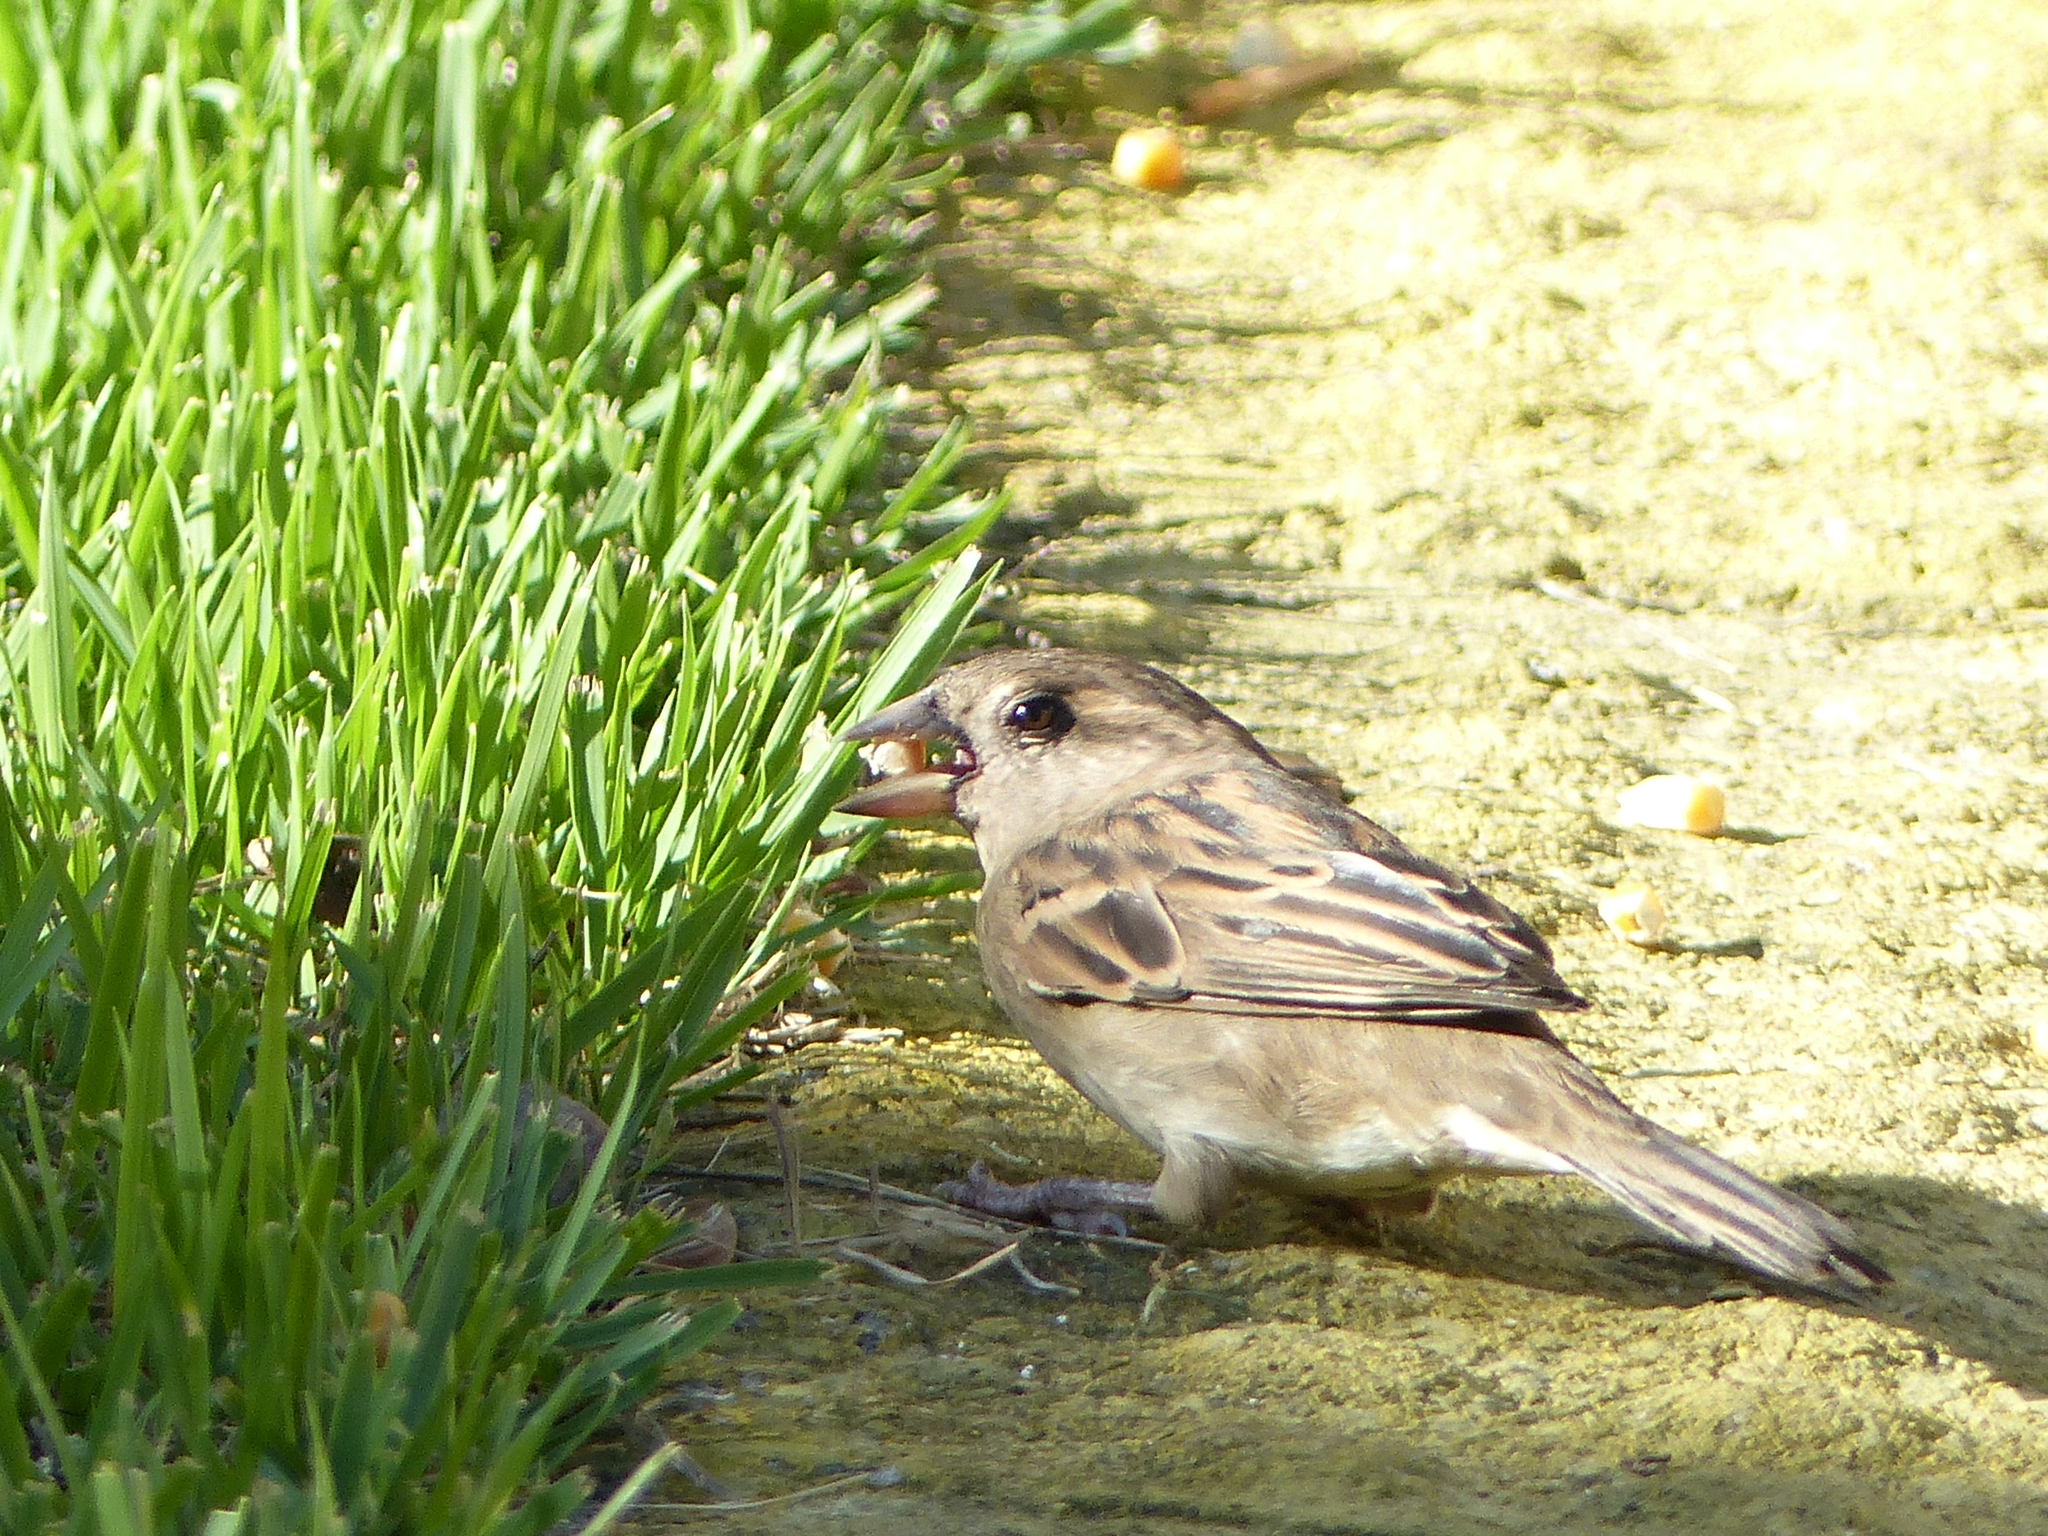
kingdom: Animalia
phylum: Chordata
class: Aves
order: Passeriformes
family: Passeridae
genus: Passer
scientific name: Passer domesticus
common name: House sparrow
